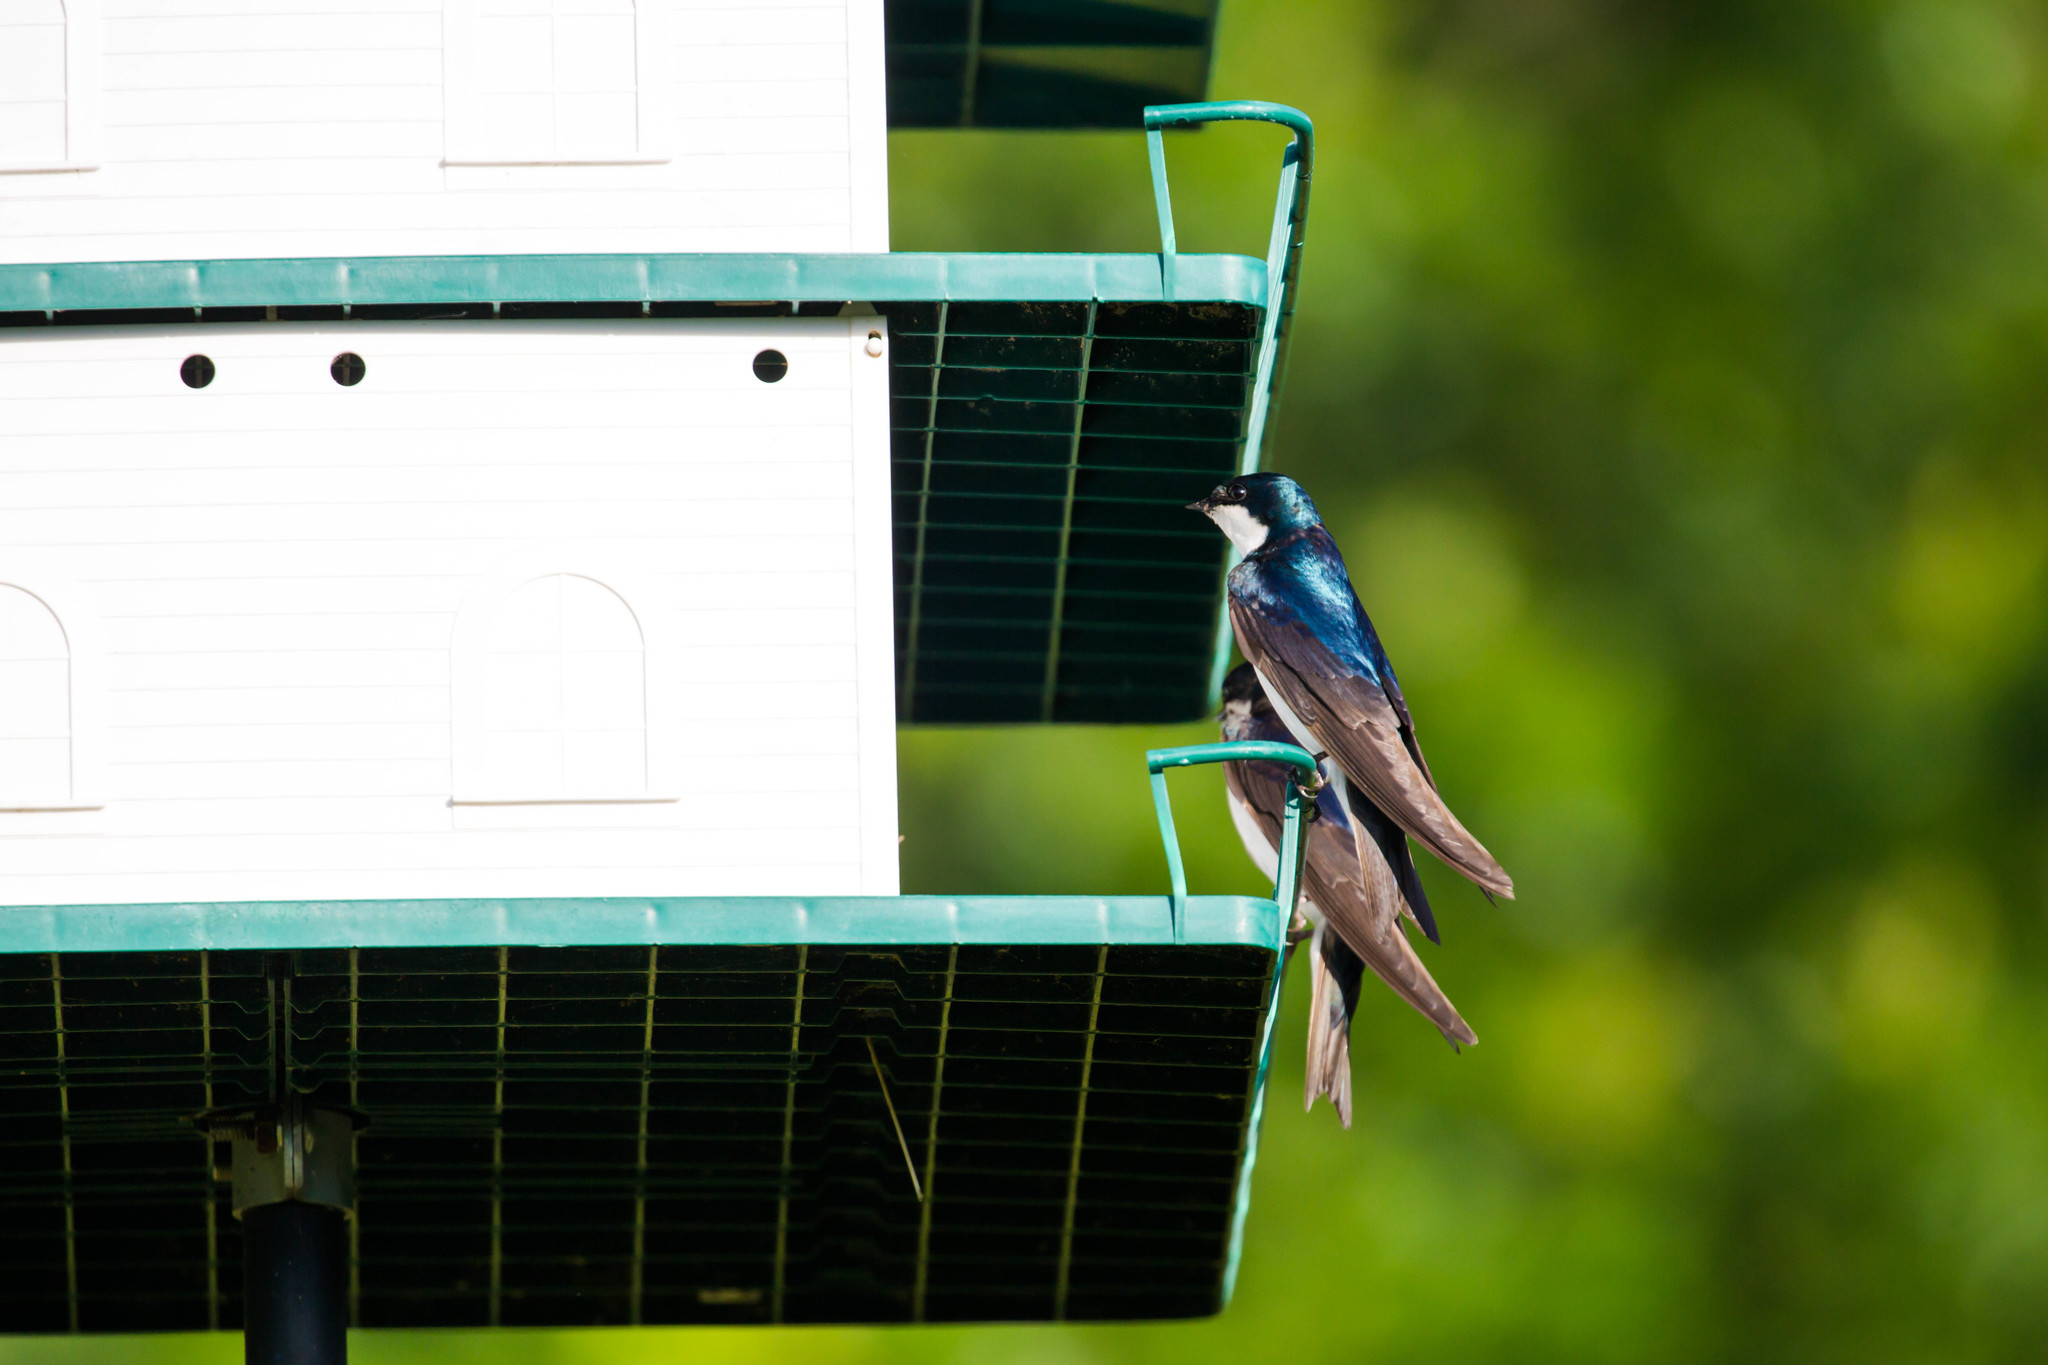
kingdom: Animalia
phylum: Chordata
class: Aves
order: Passeriformes
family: Hirundinidae
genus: Tachycineta
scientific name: Tachycineta bicolor
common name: Tree swallow
